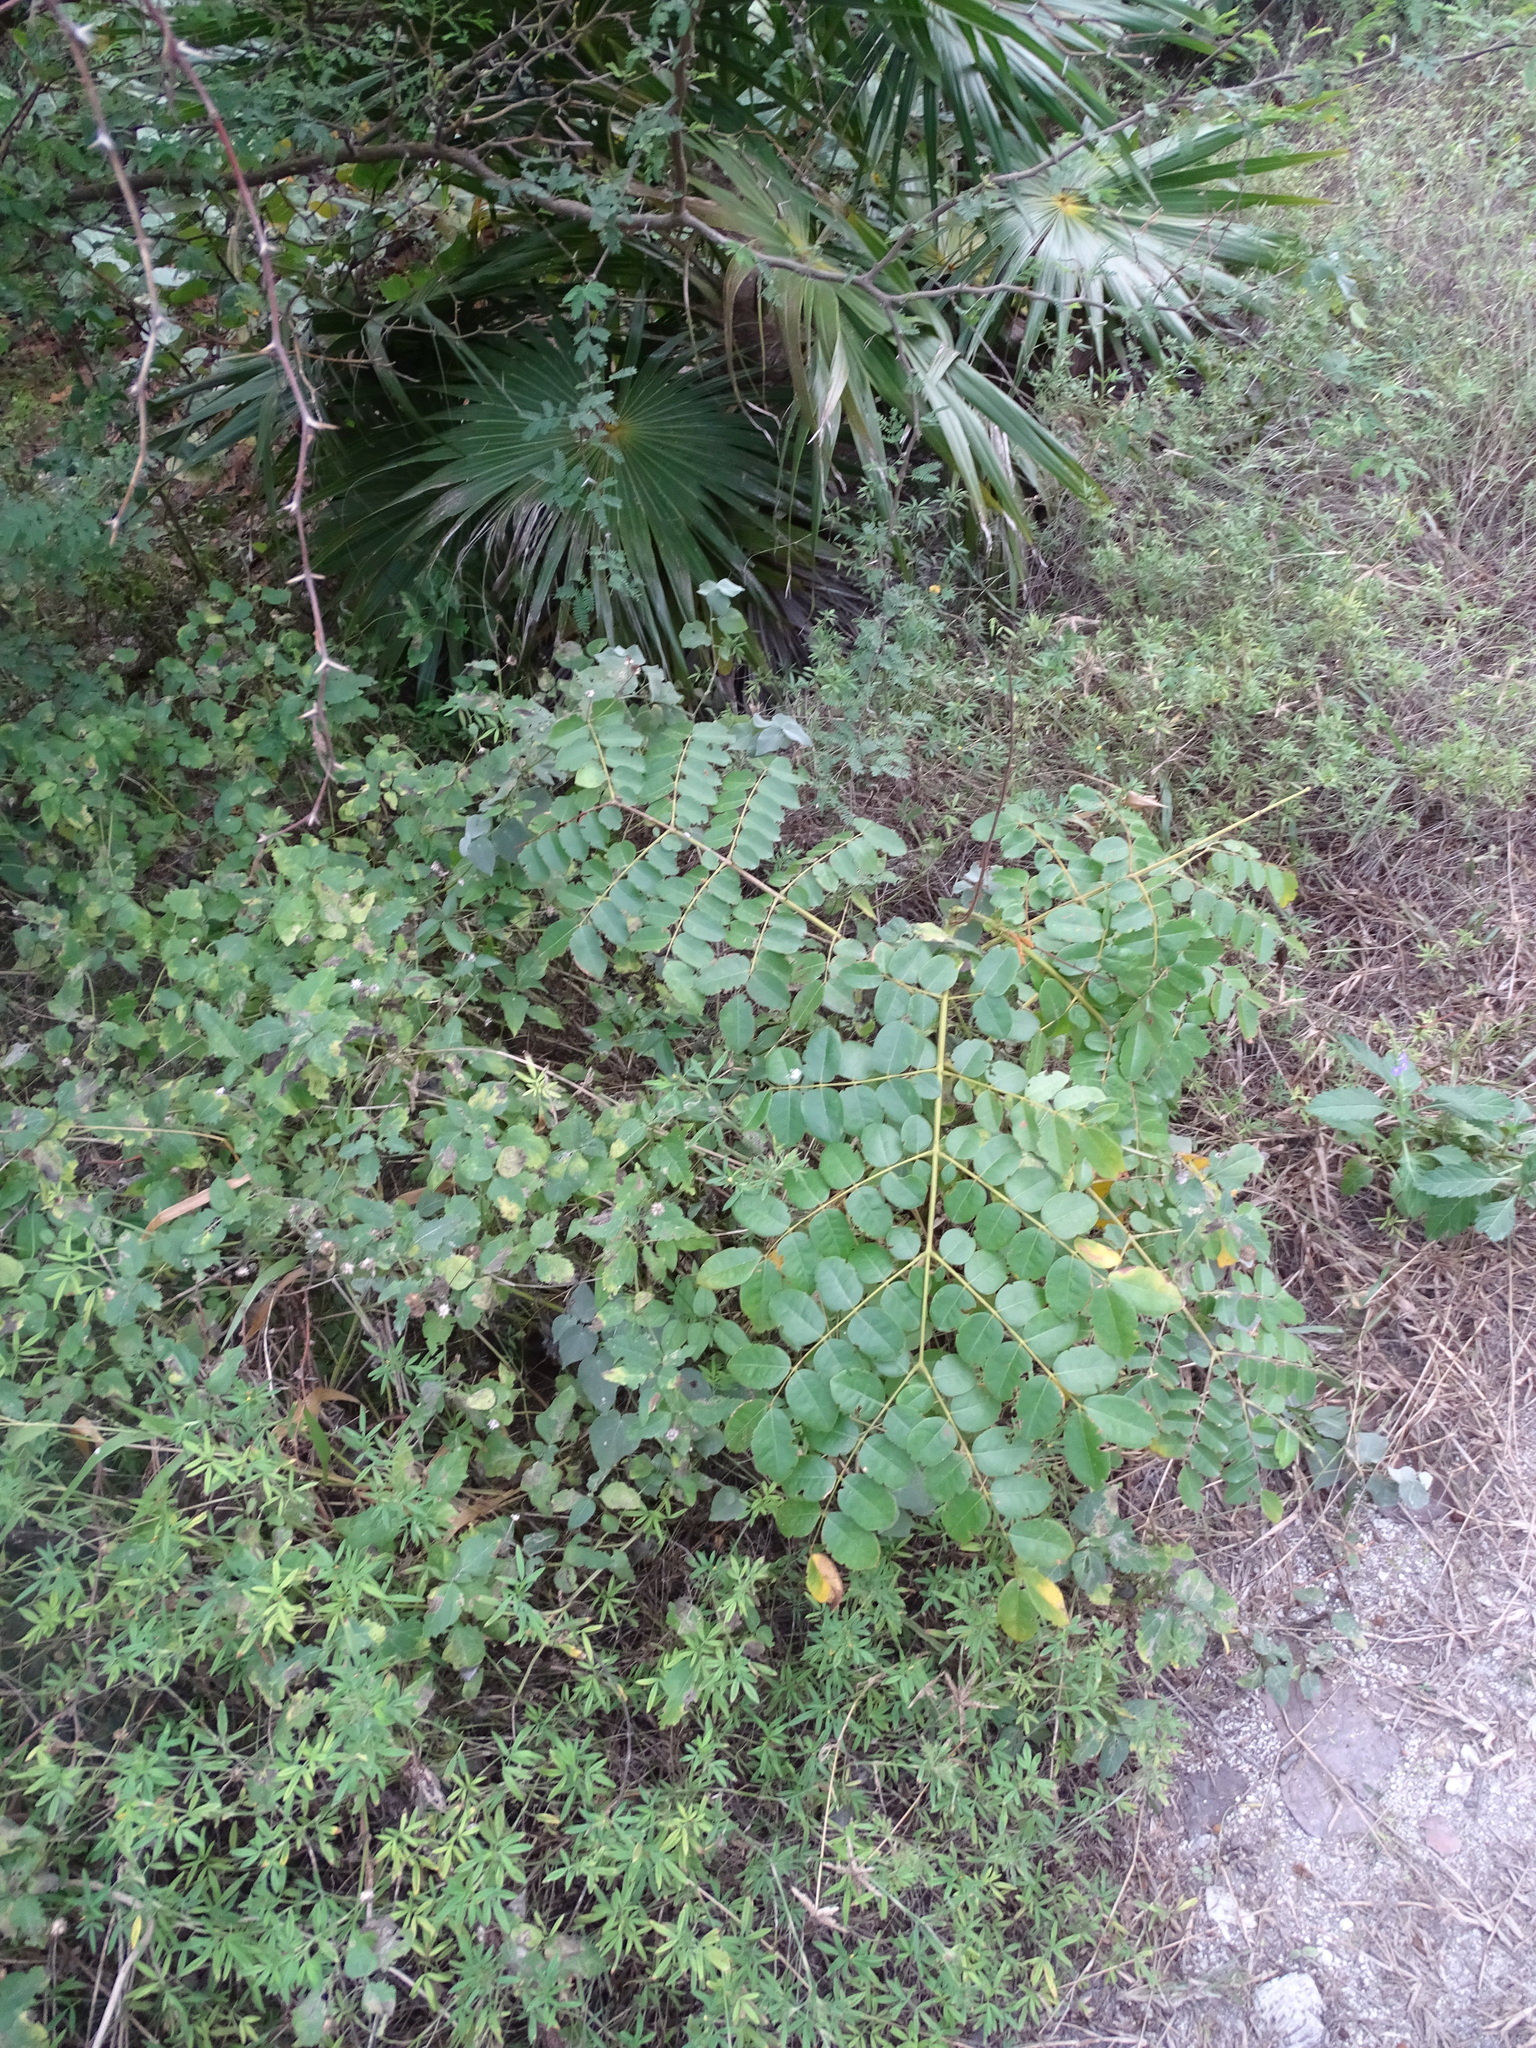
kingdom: Plantae
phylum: Tracheophyta
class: Magnoliopsida
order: Fabales
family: Fabaceae
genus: Guilandina
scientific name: Guilandina bonduc
